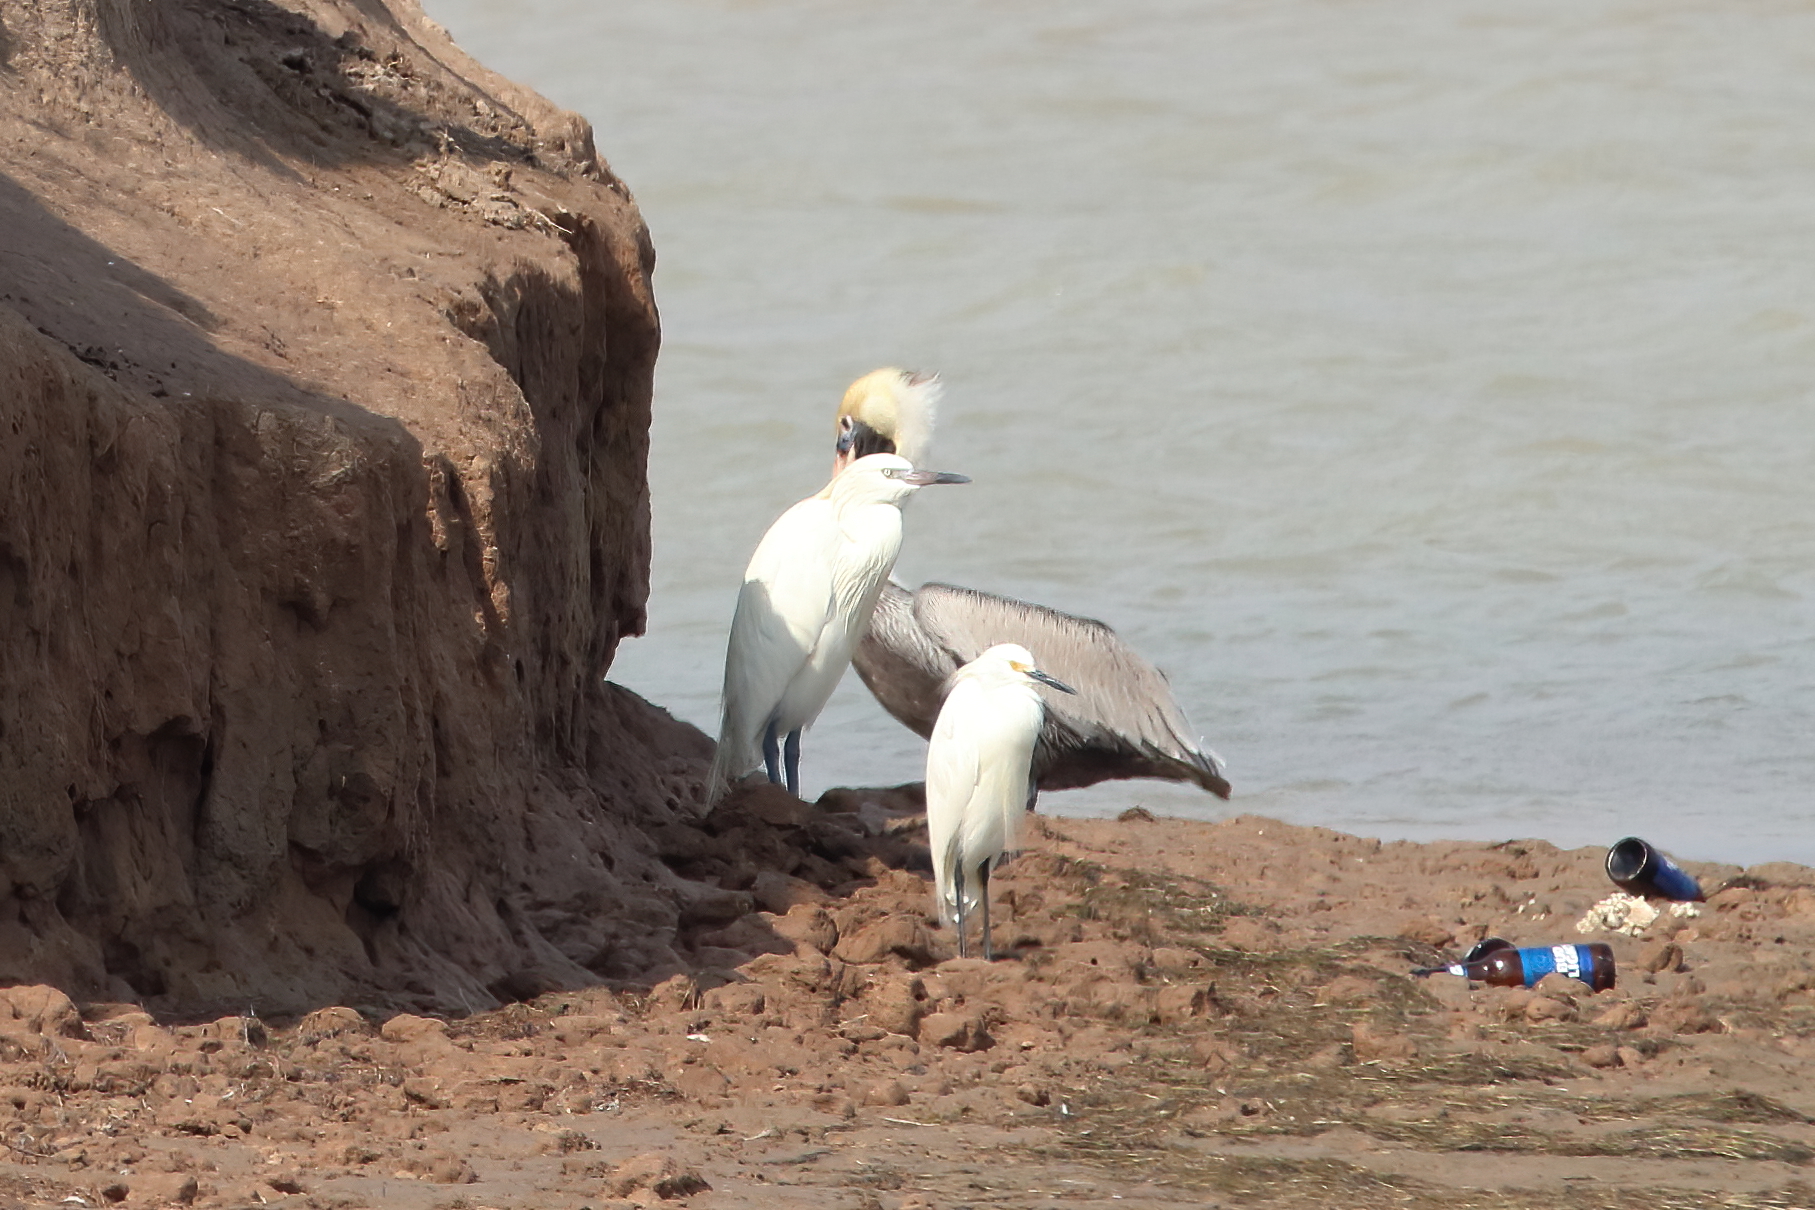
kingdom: Animalia
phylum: Chordata
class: Aves
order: Pelecaniformes
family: Pelecanidae
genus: Pelecanus
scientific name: Pelecanus occidentalis
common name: Brown pelican
